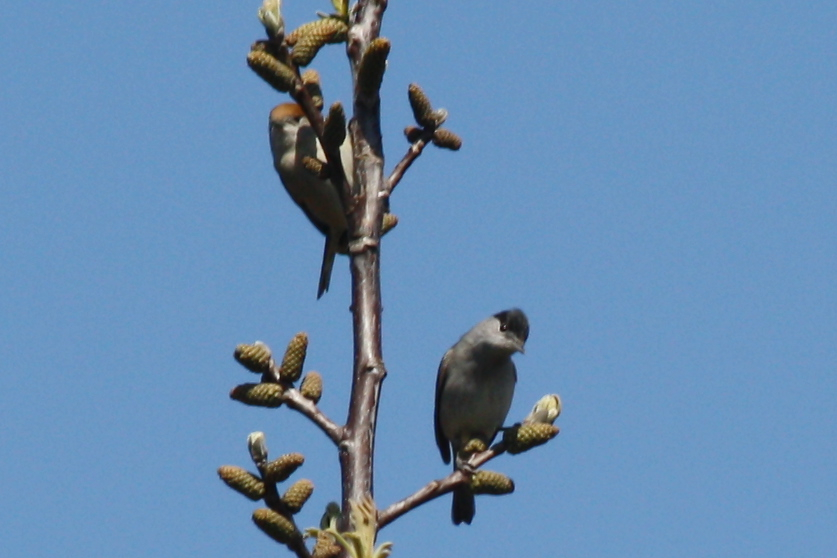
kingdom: Animalia
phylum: Chordata
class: Aves
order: Passeriformes
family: Sylviidae
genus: Sylvia
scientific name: Sylvia atricapilla
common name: Eurasian blackcap
